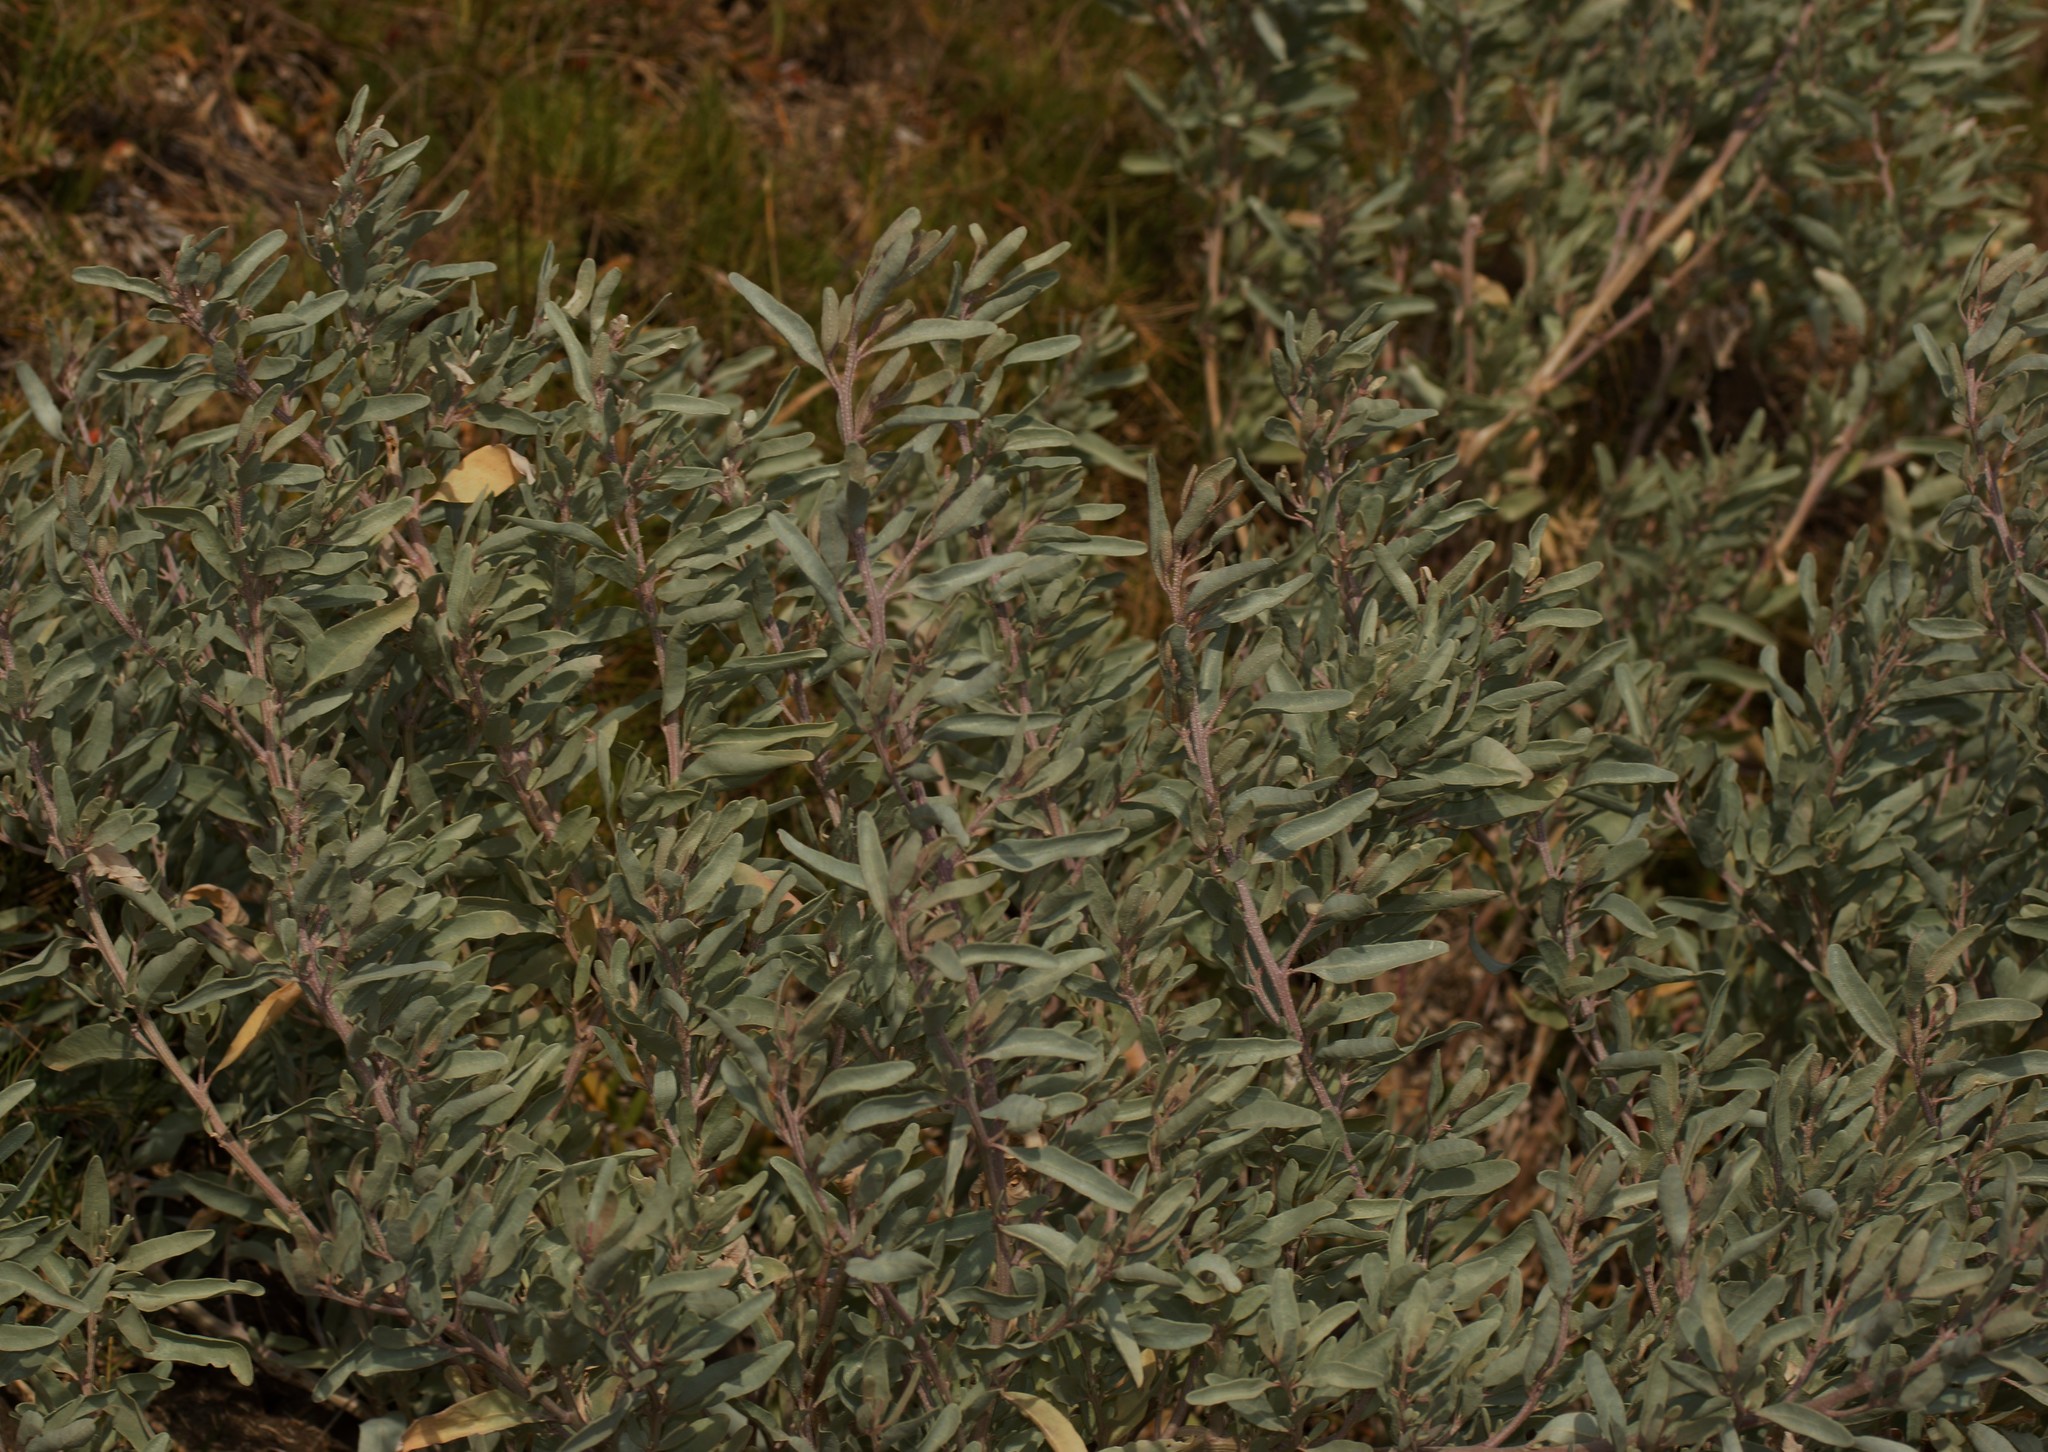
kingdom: Plantae
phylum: Tracheophyta
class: Magnoliopsida
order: Caryophyllales
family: Amaranthaceae
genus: Atriplex
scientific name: Atriplex cinerea
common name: Grey saltbush
